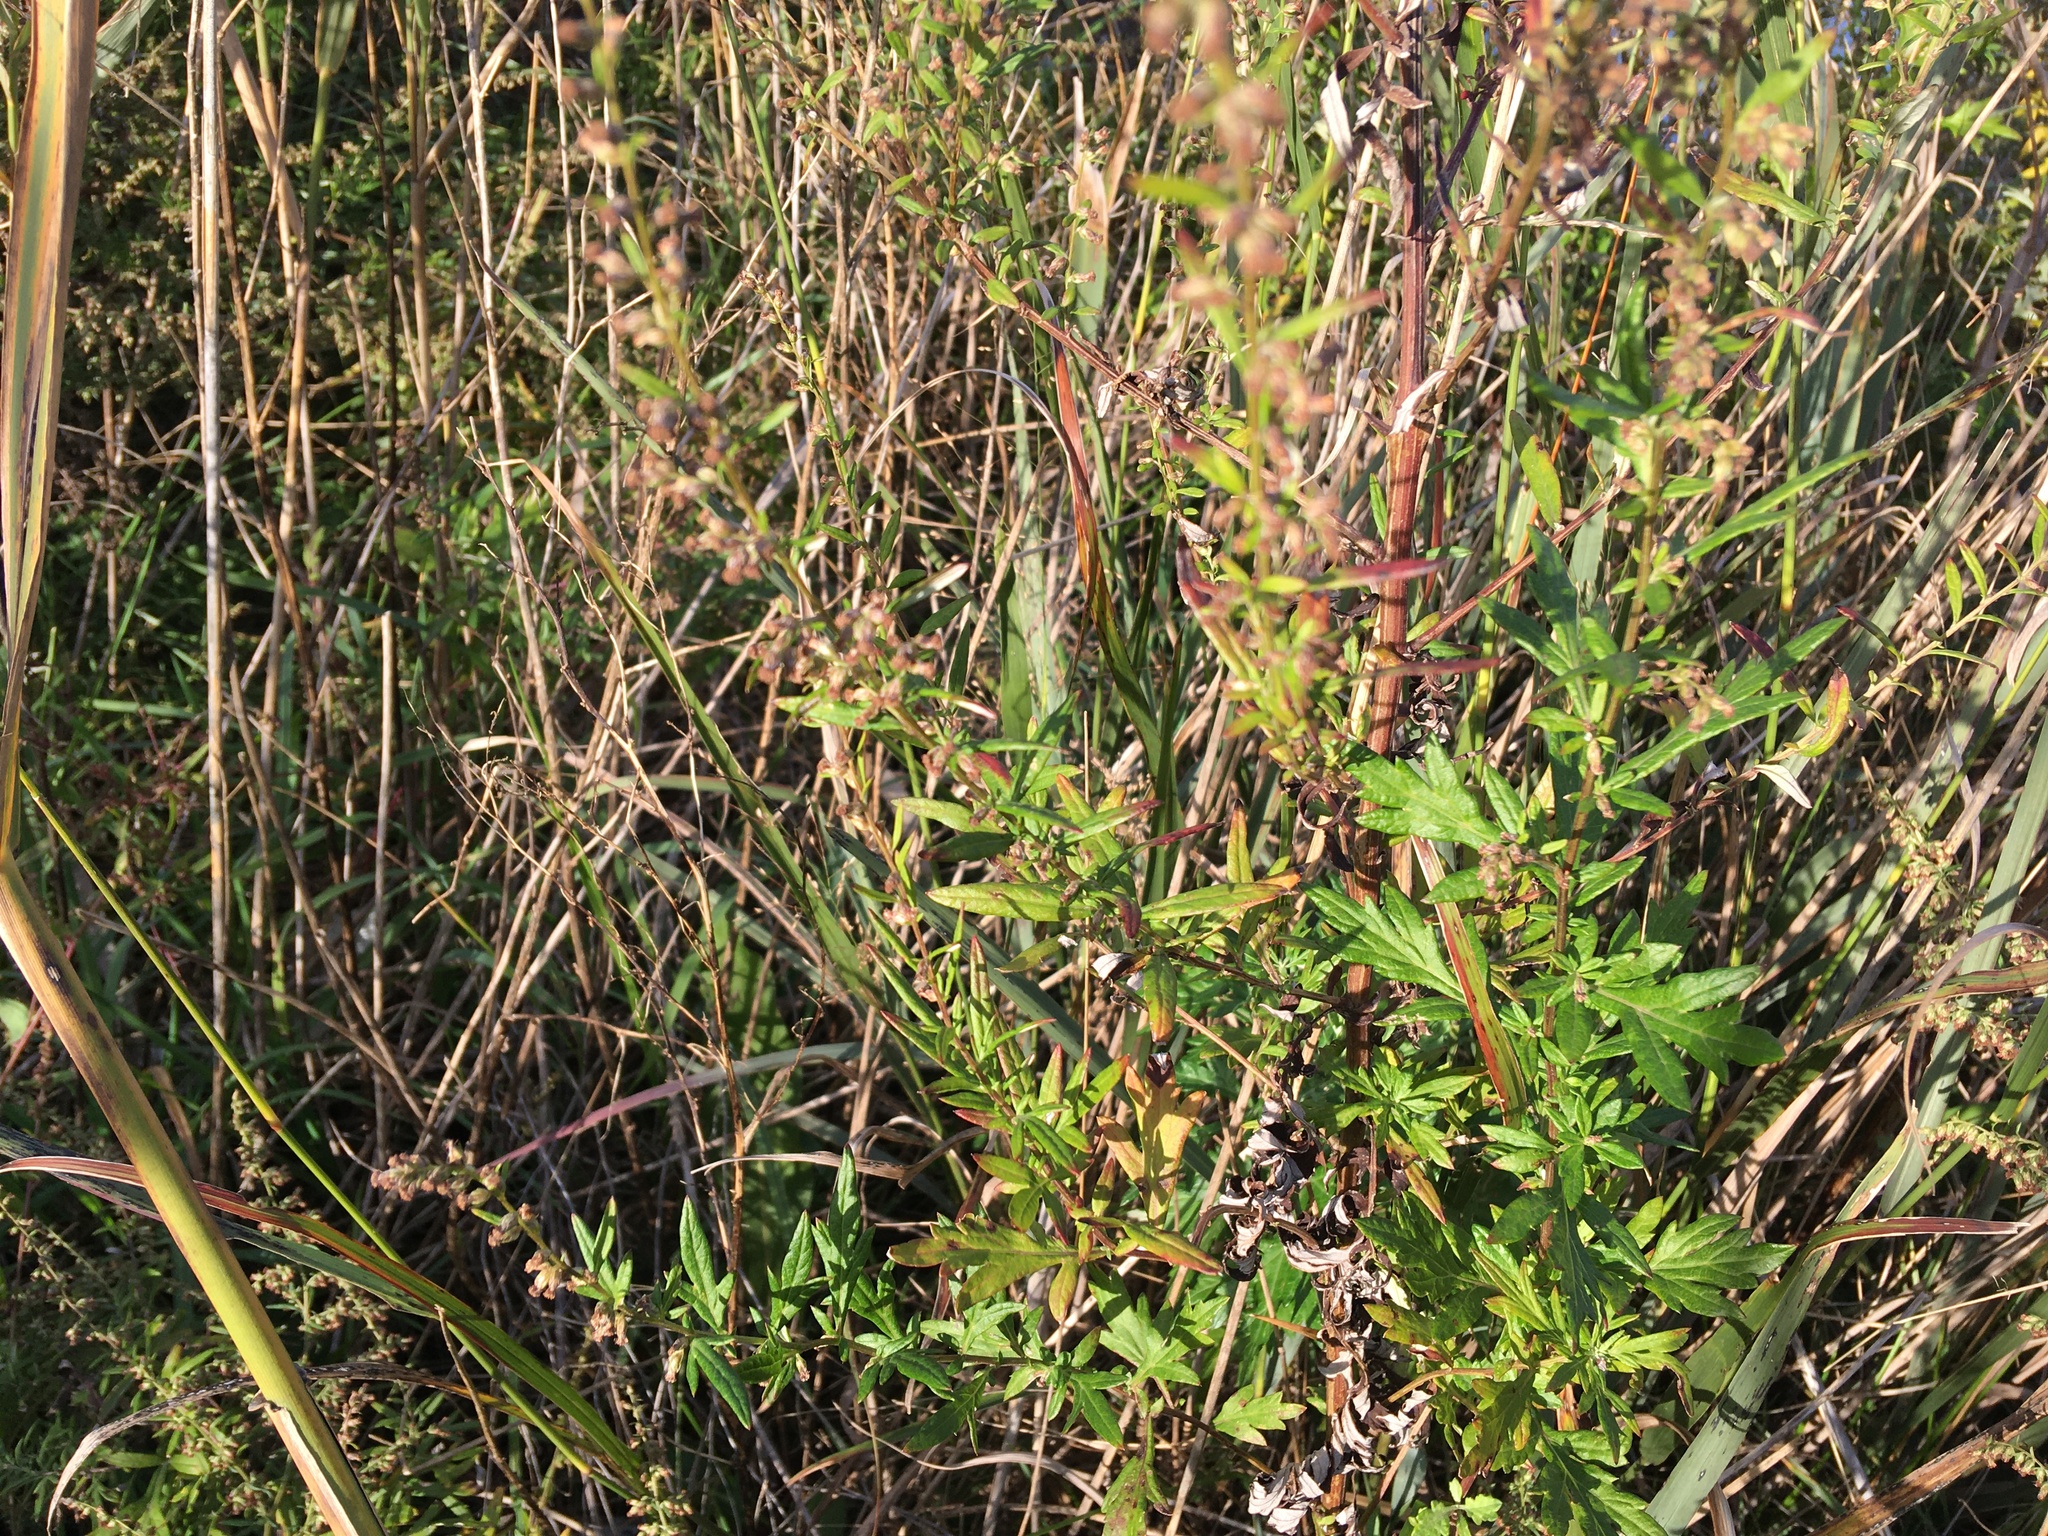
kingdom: Plantae
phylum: Tracheophyta
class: Magnoliopsida
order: Asterales
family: Asteraceae
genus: Artemisia
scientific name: Artemisia vulgaris
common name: Mugwort
